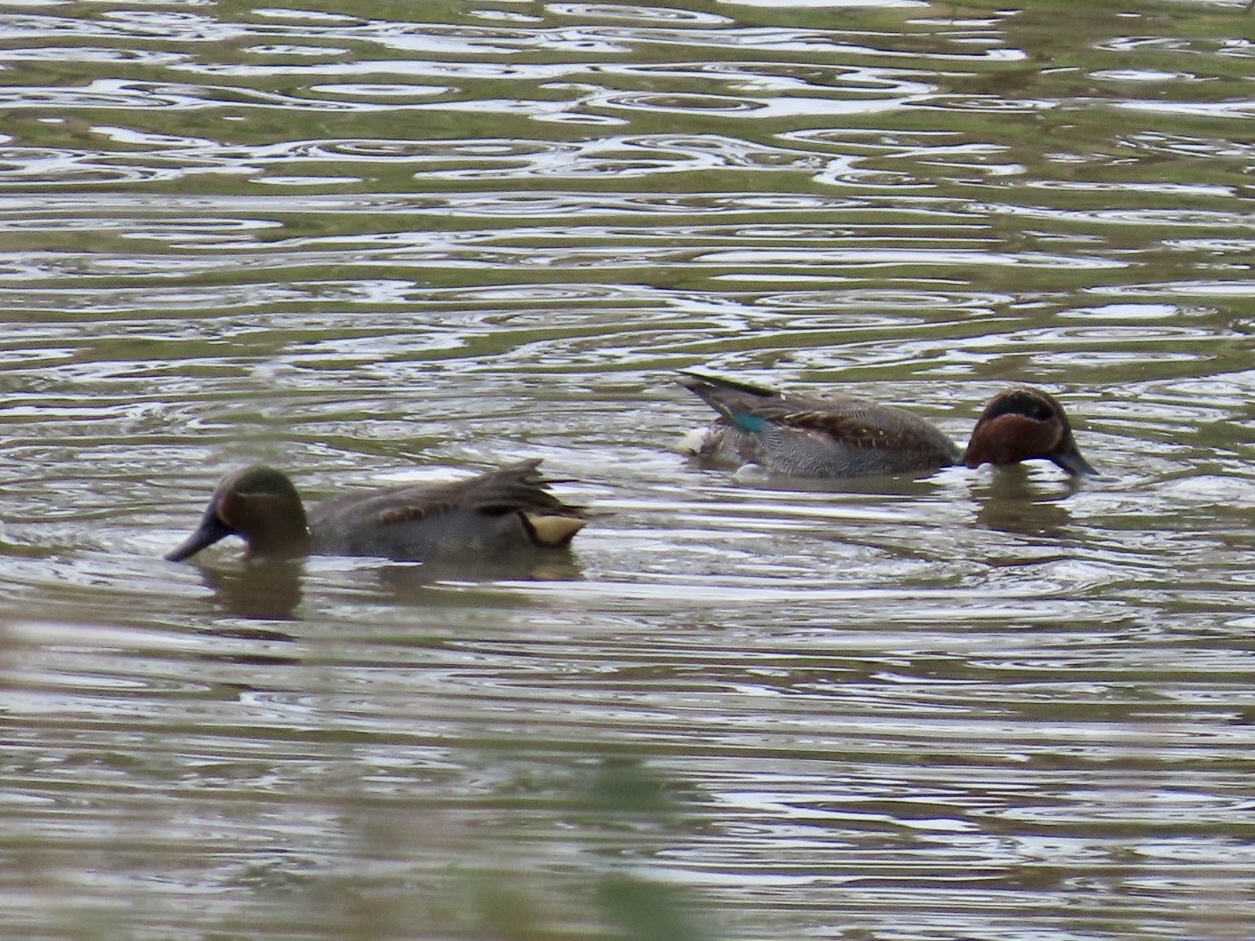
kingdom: Animalia
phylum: Chordata
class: Aves
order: Anseriformes
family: Anatidae
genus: Anas
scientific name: Anas crecca
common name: Eurasian teal
